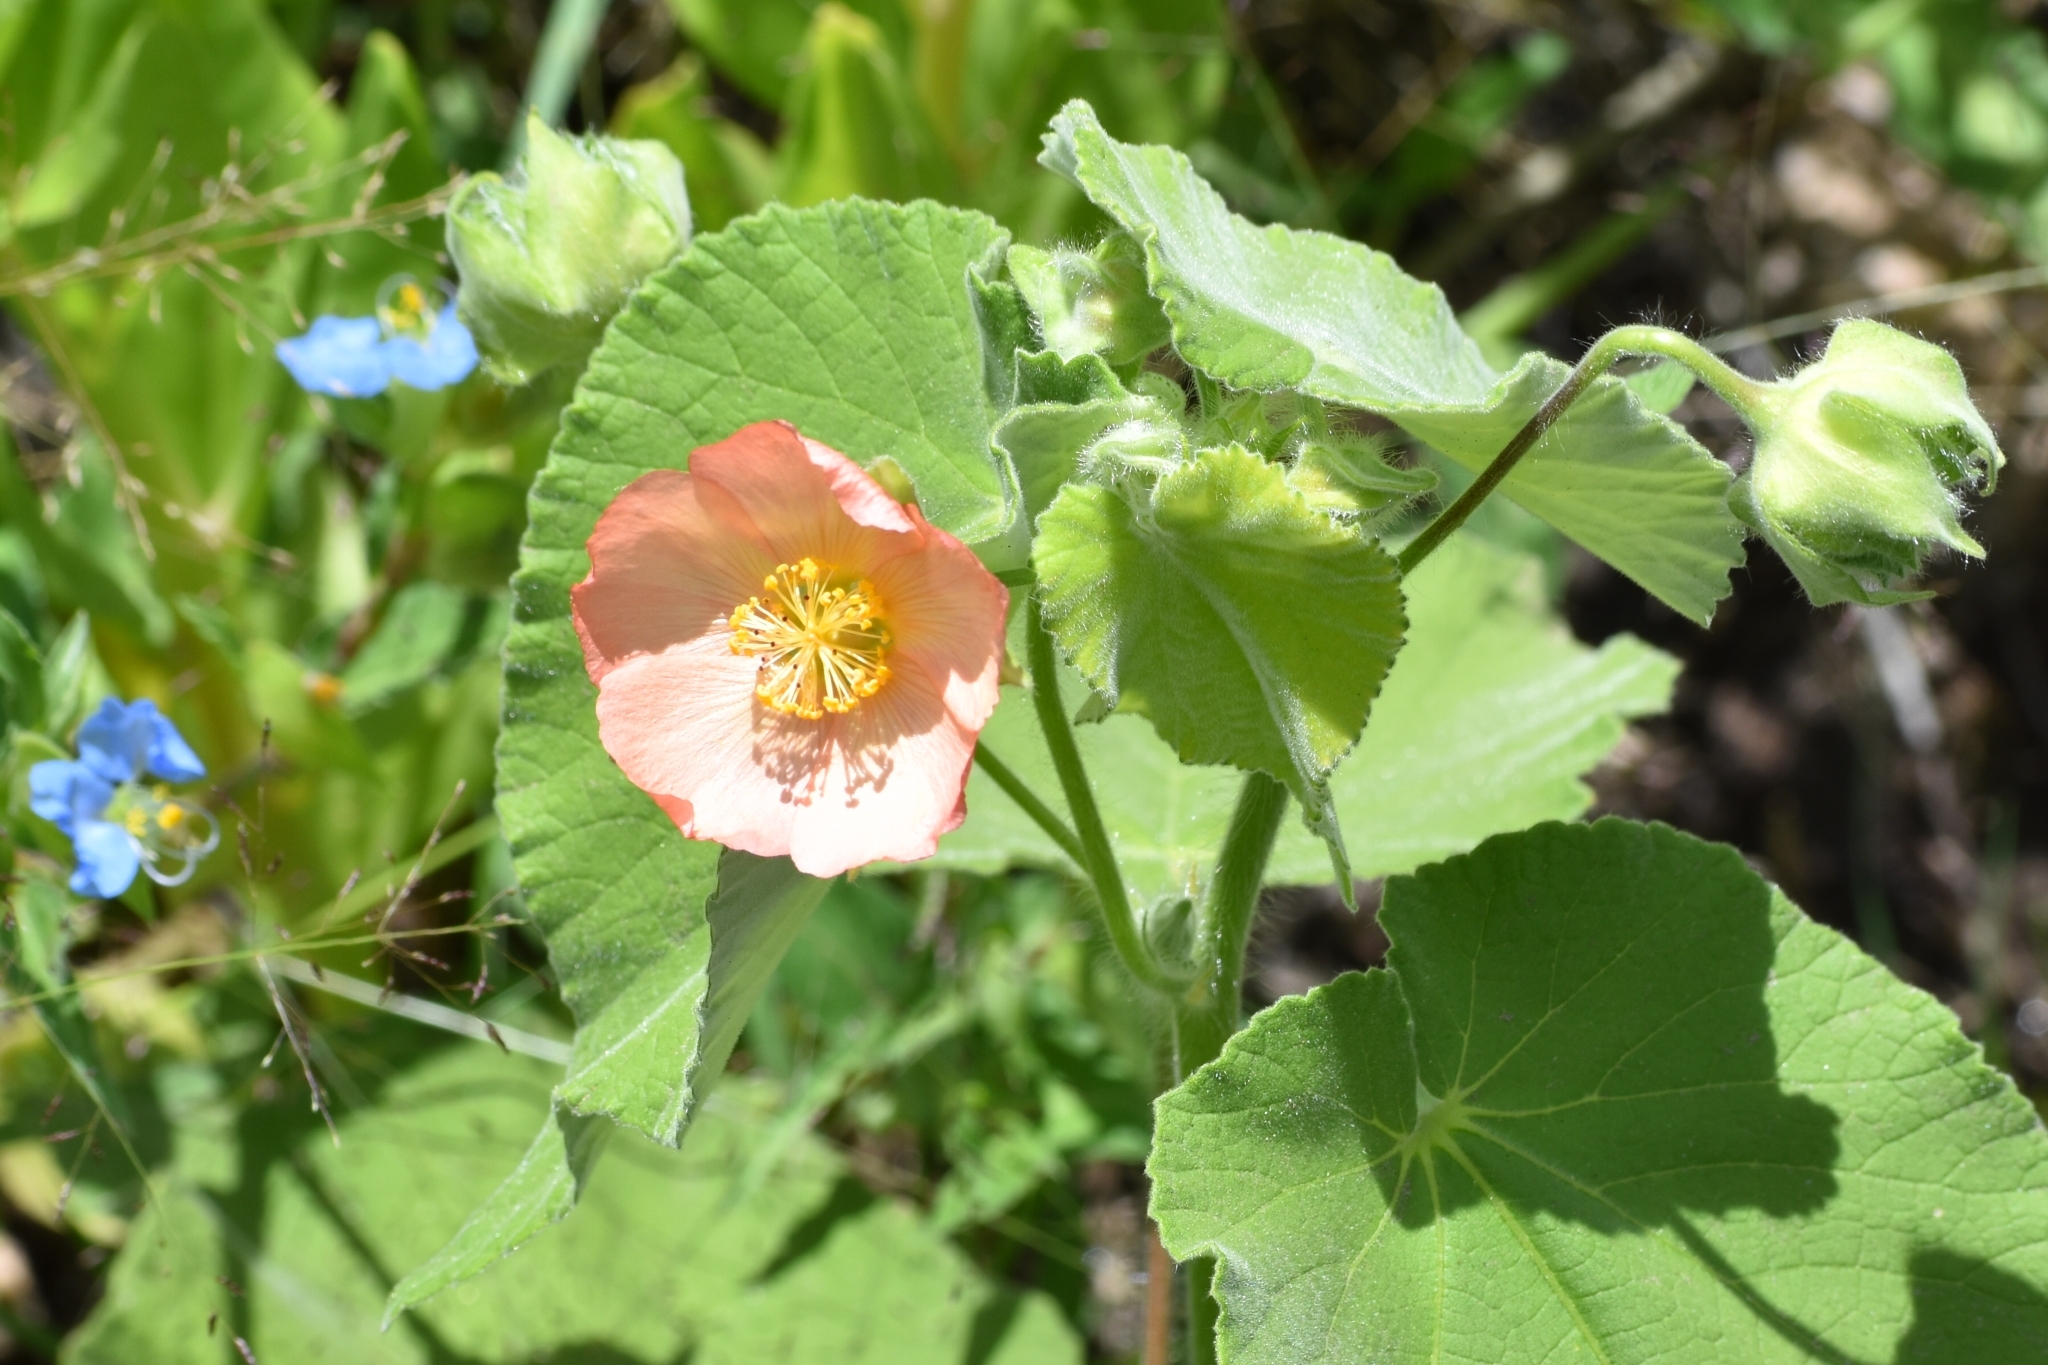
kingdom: Plantae
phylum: Tracheophyta
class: Magnoliopsida
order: Malvales
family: Malvaceae
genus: Callianthe
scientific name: Callianthe pauciflora
